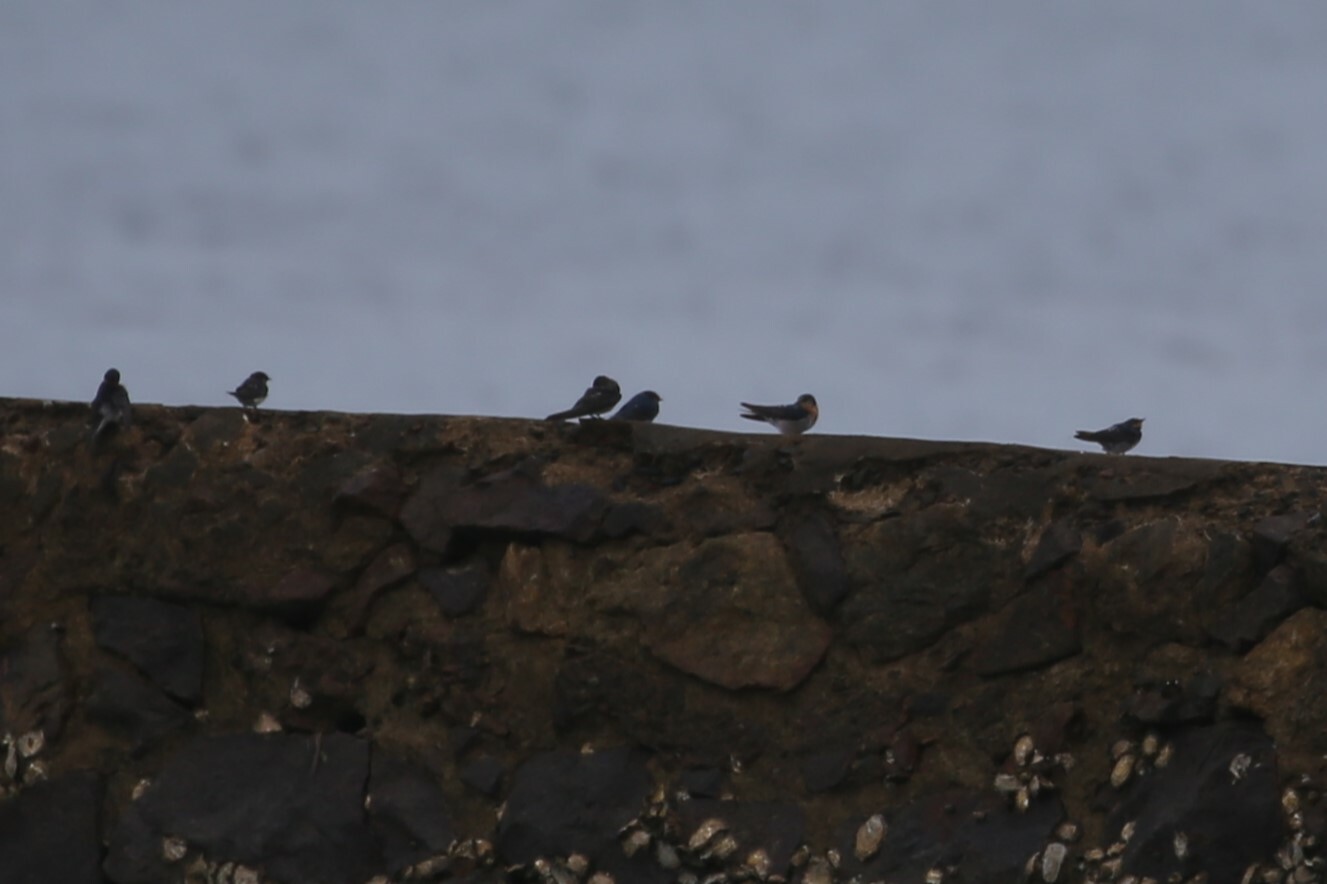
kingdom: Animalia
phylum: Chordata
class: Aves
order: Passeriformes
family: Hirundinidae
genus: Hirundo
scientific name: Hirundo neoxena
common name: Welcome swallow
